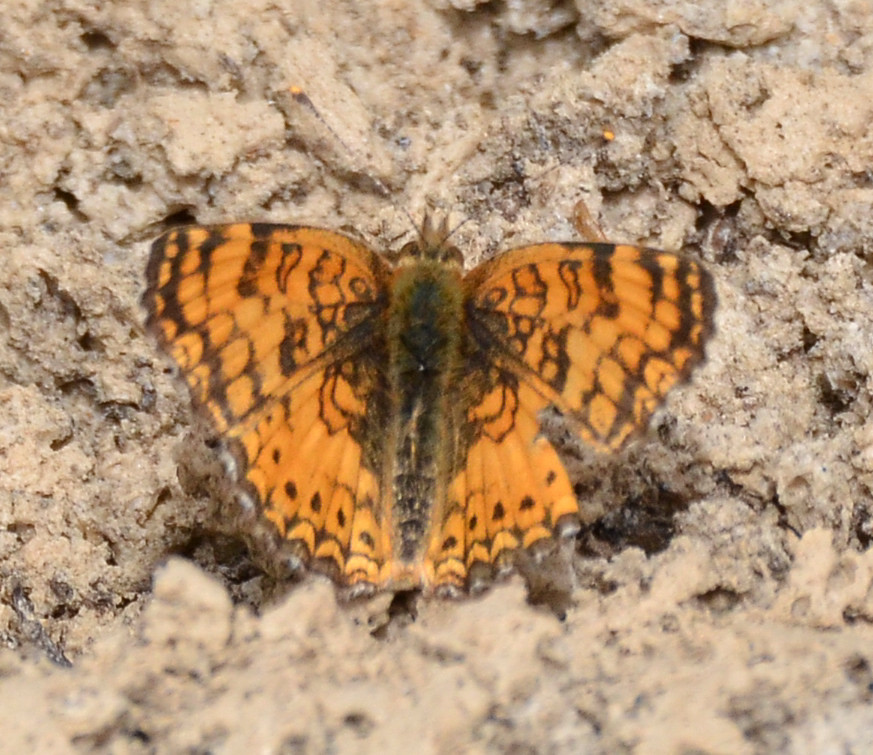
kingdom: Animalia
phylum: Arthropoda
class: Insecta
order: Lepidoptera
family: Nymphalidae
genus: Eresia
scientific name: Eresia aveyrona
